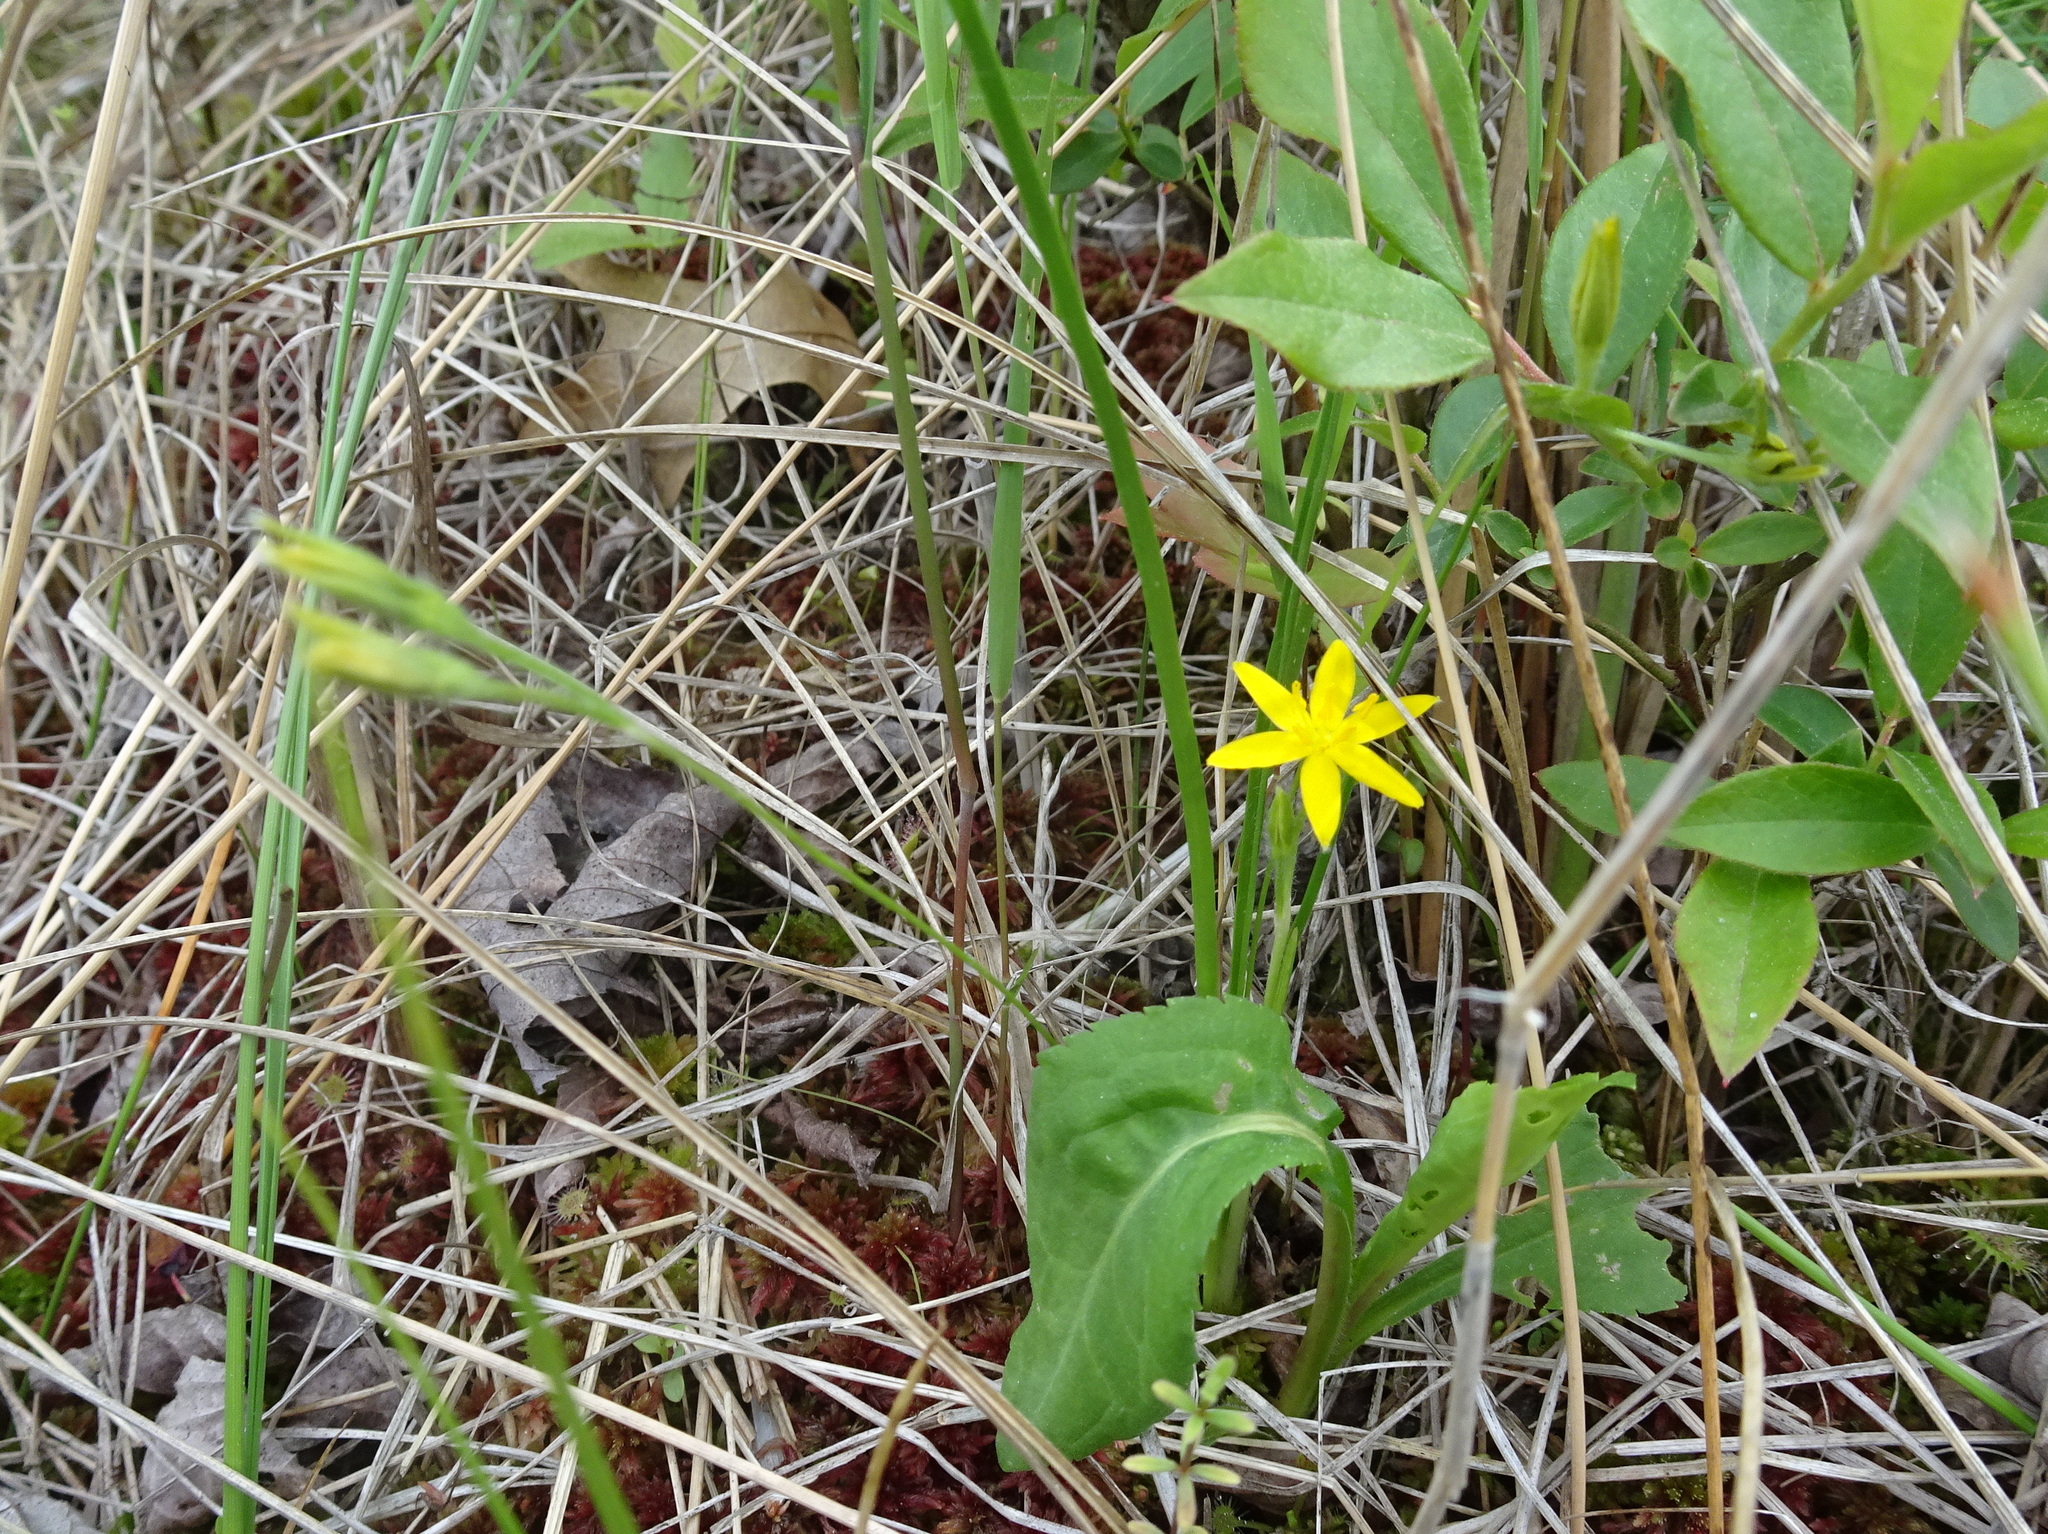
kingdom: Plantae
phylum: Tracheophyta
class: Liliopsida
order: Asparagales
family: Hypoxidaceae
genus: Hypoxis
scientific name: Hypoxis hirsuta
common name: Common goldstar
